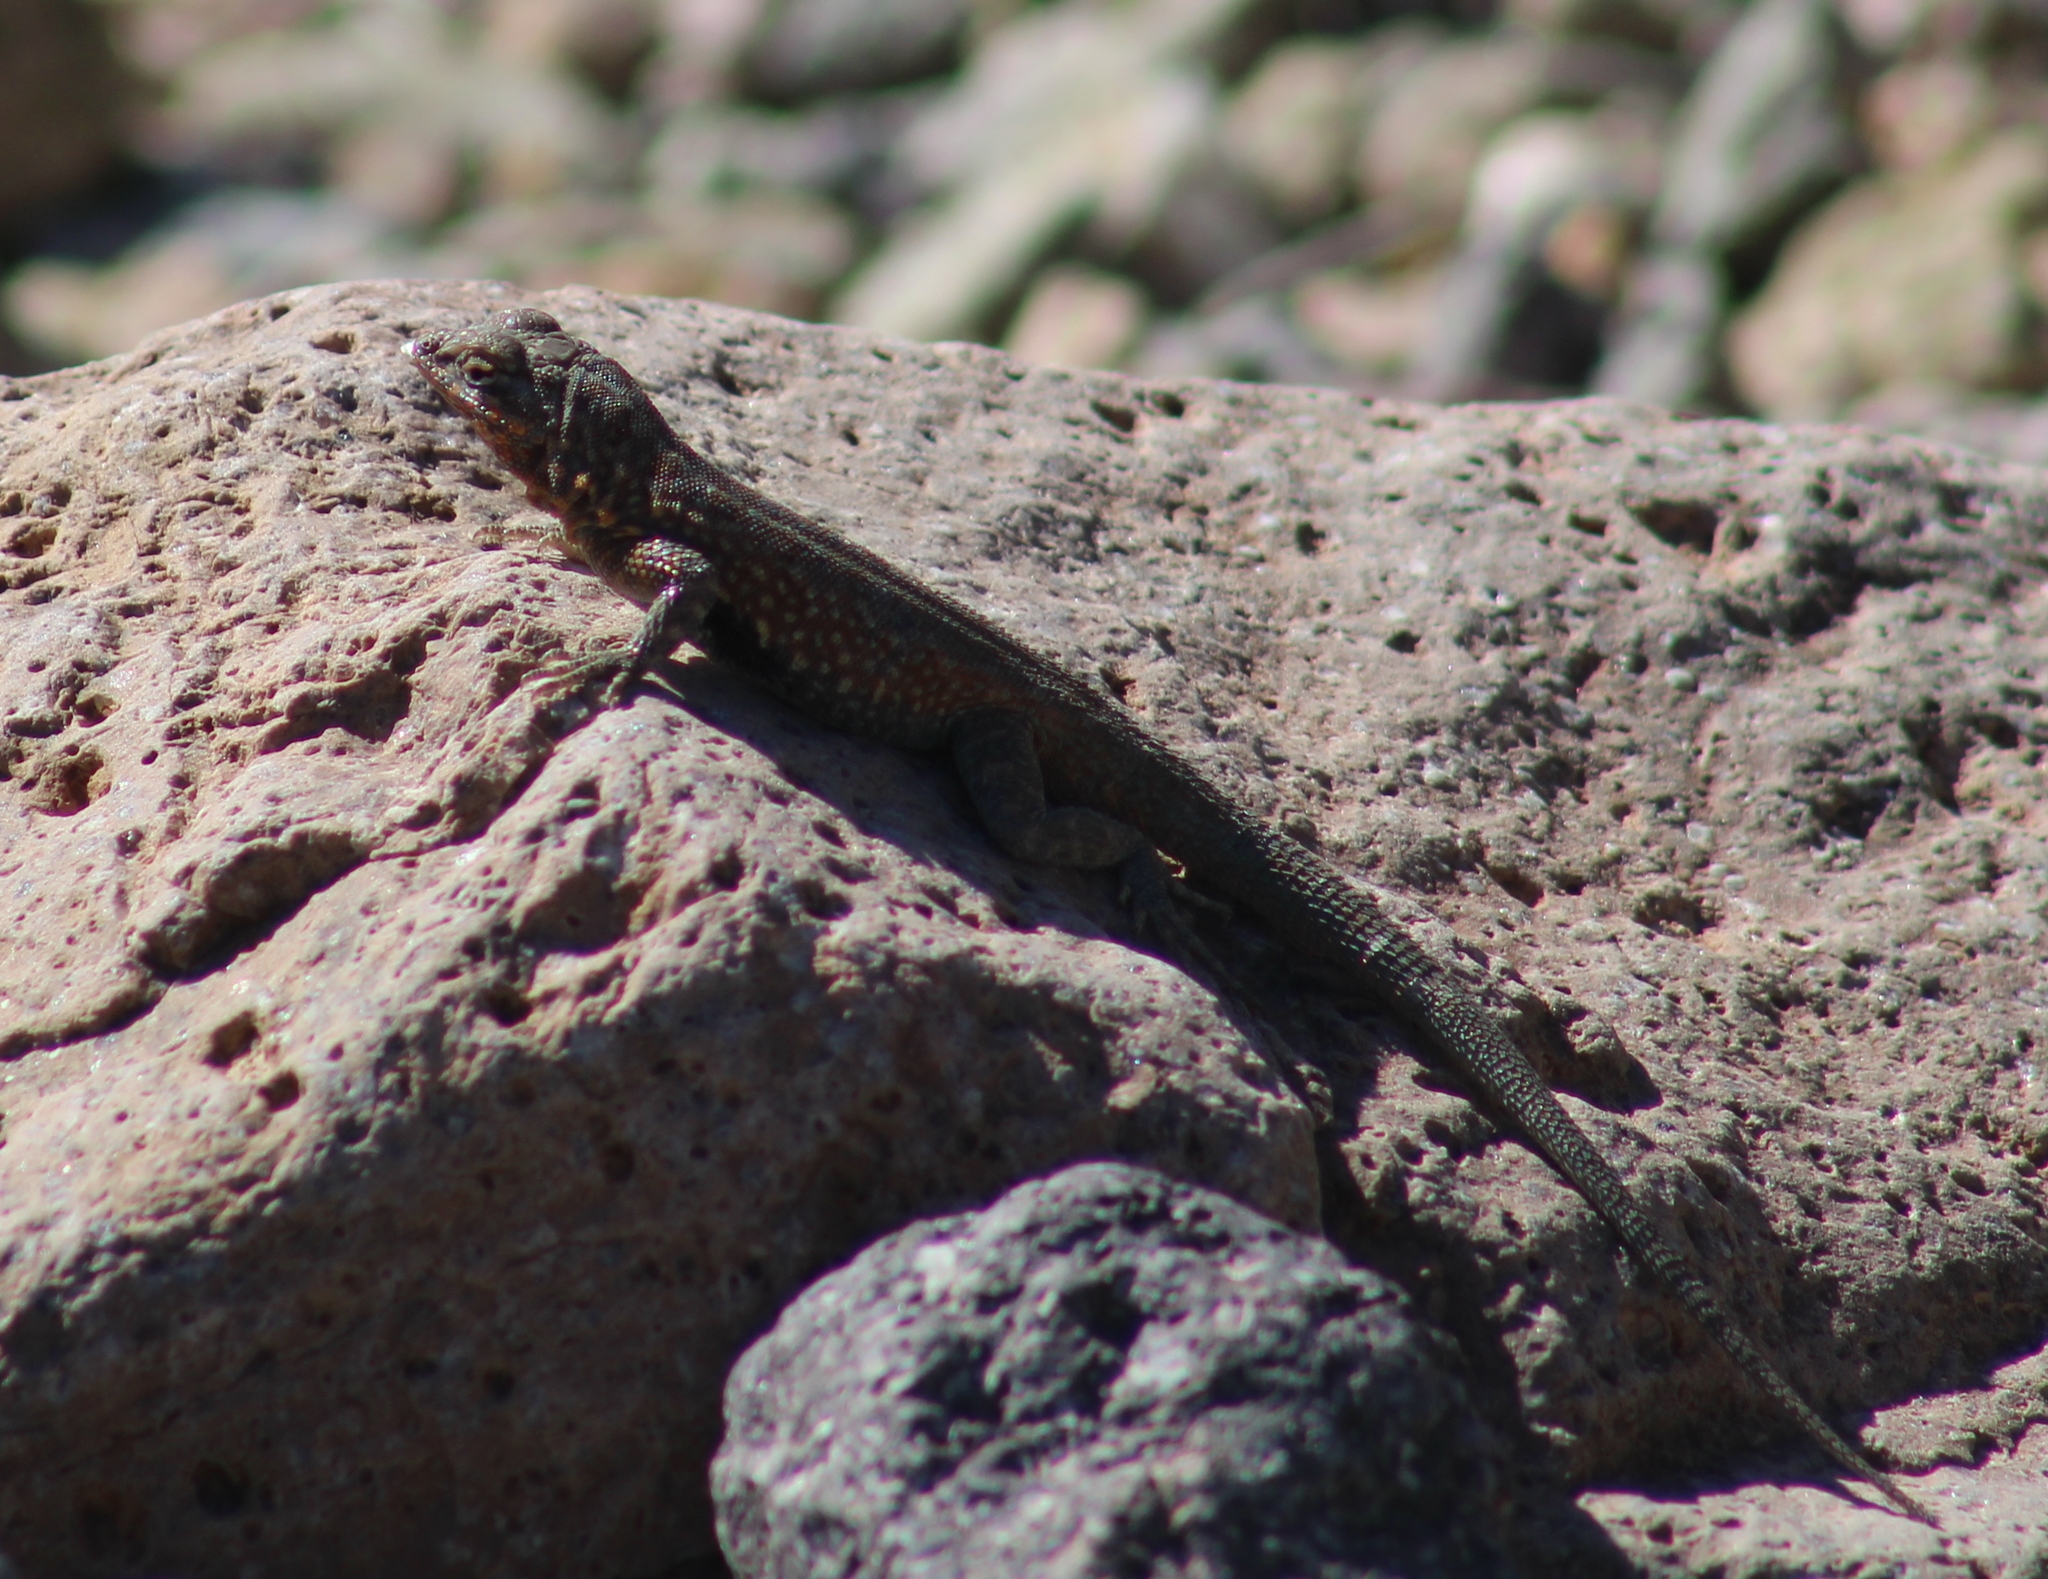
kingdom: Animalia
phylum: Chordata
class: Squamata
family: Phrynosomatidae
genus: Uta
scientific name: Uta stansburiana
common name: Side-blotched lizard
